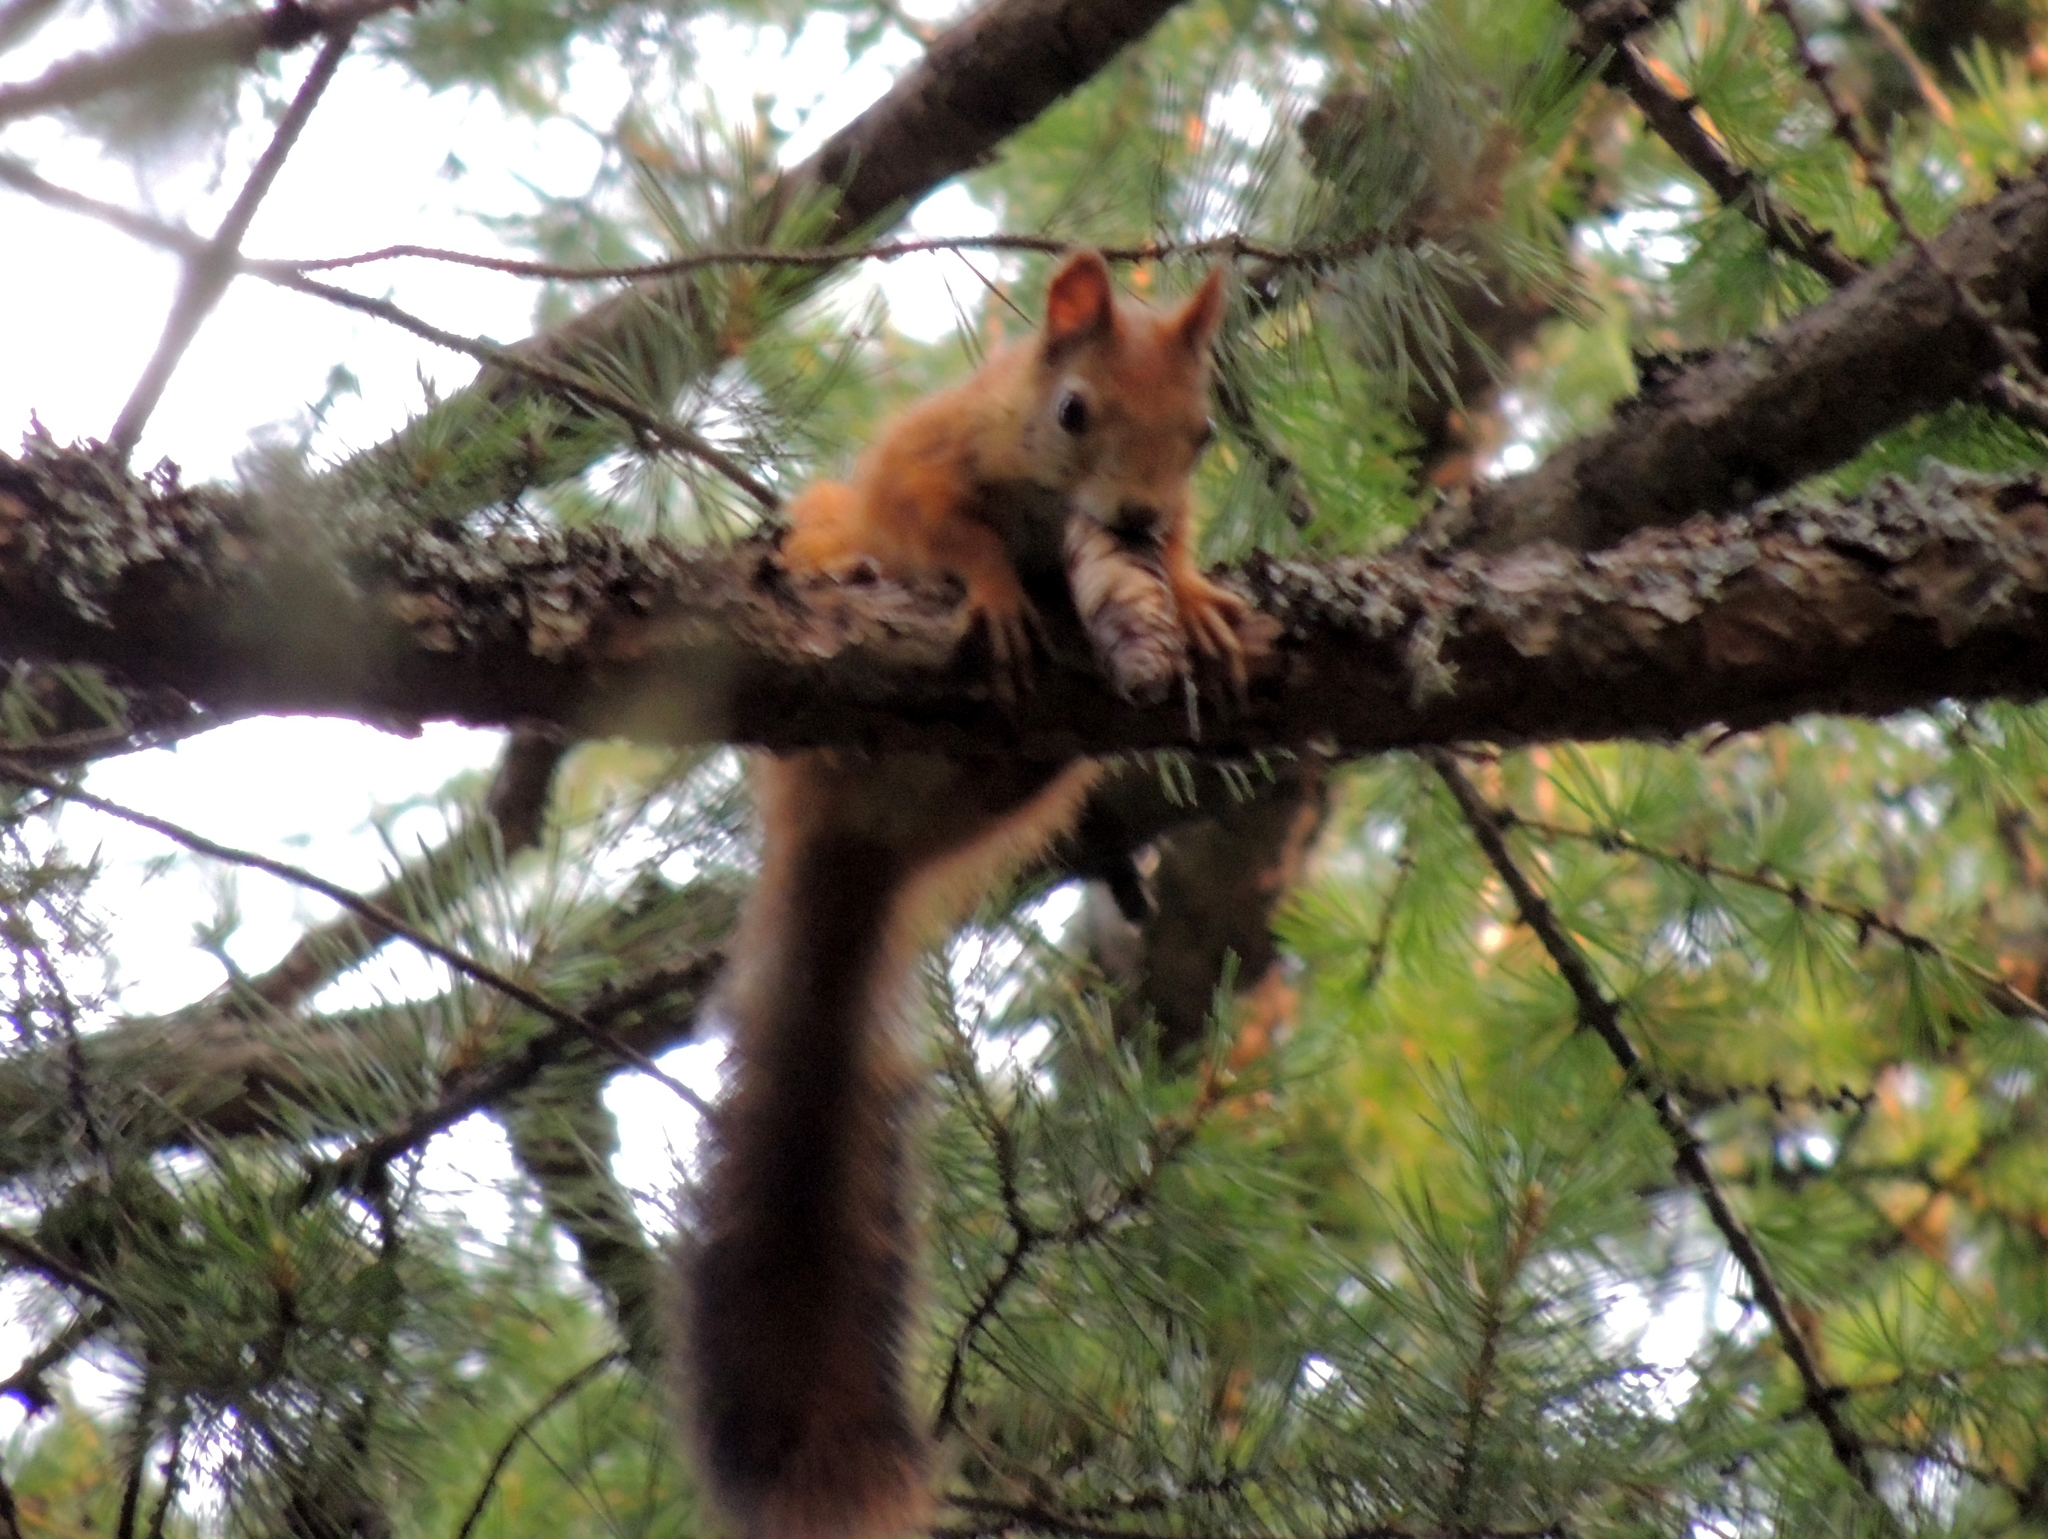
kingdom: Animalia
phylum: Chordata
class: Mammalia
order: Rodentia
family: Sciuridae
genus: Sciurus
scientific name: Sciurus vulgaris
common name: Eurasian red squirrel
